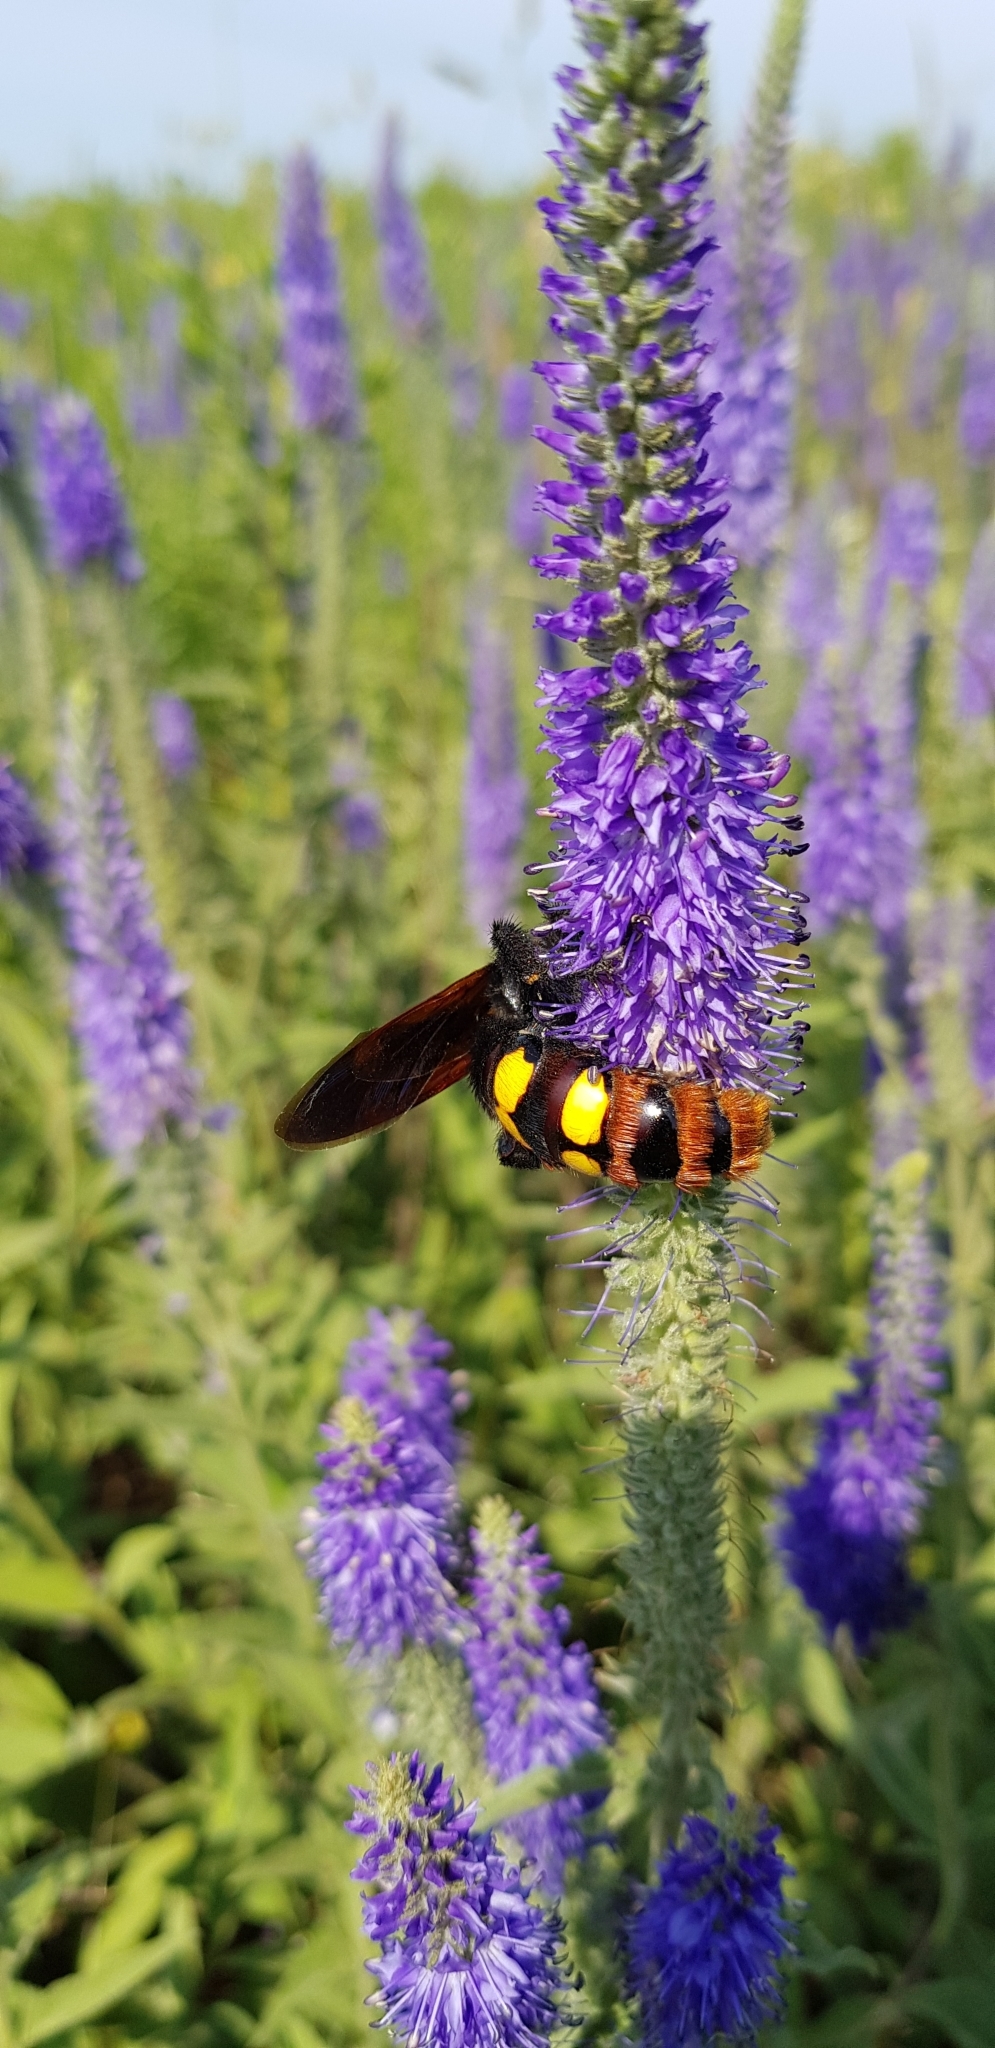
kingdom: Animalia
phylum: Arthropoda
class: Insecta
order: Hymenoptera
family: Scoliidae
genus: Megascolia
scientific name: Megascolia maculata
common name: Mammoth wasp
